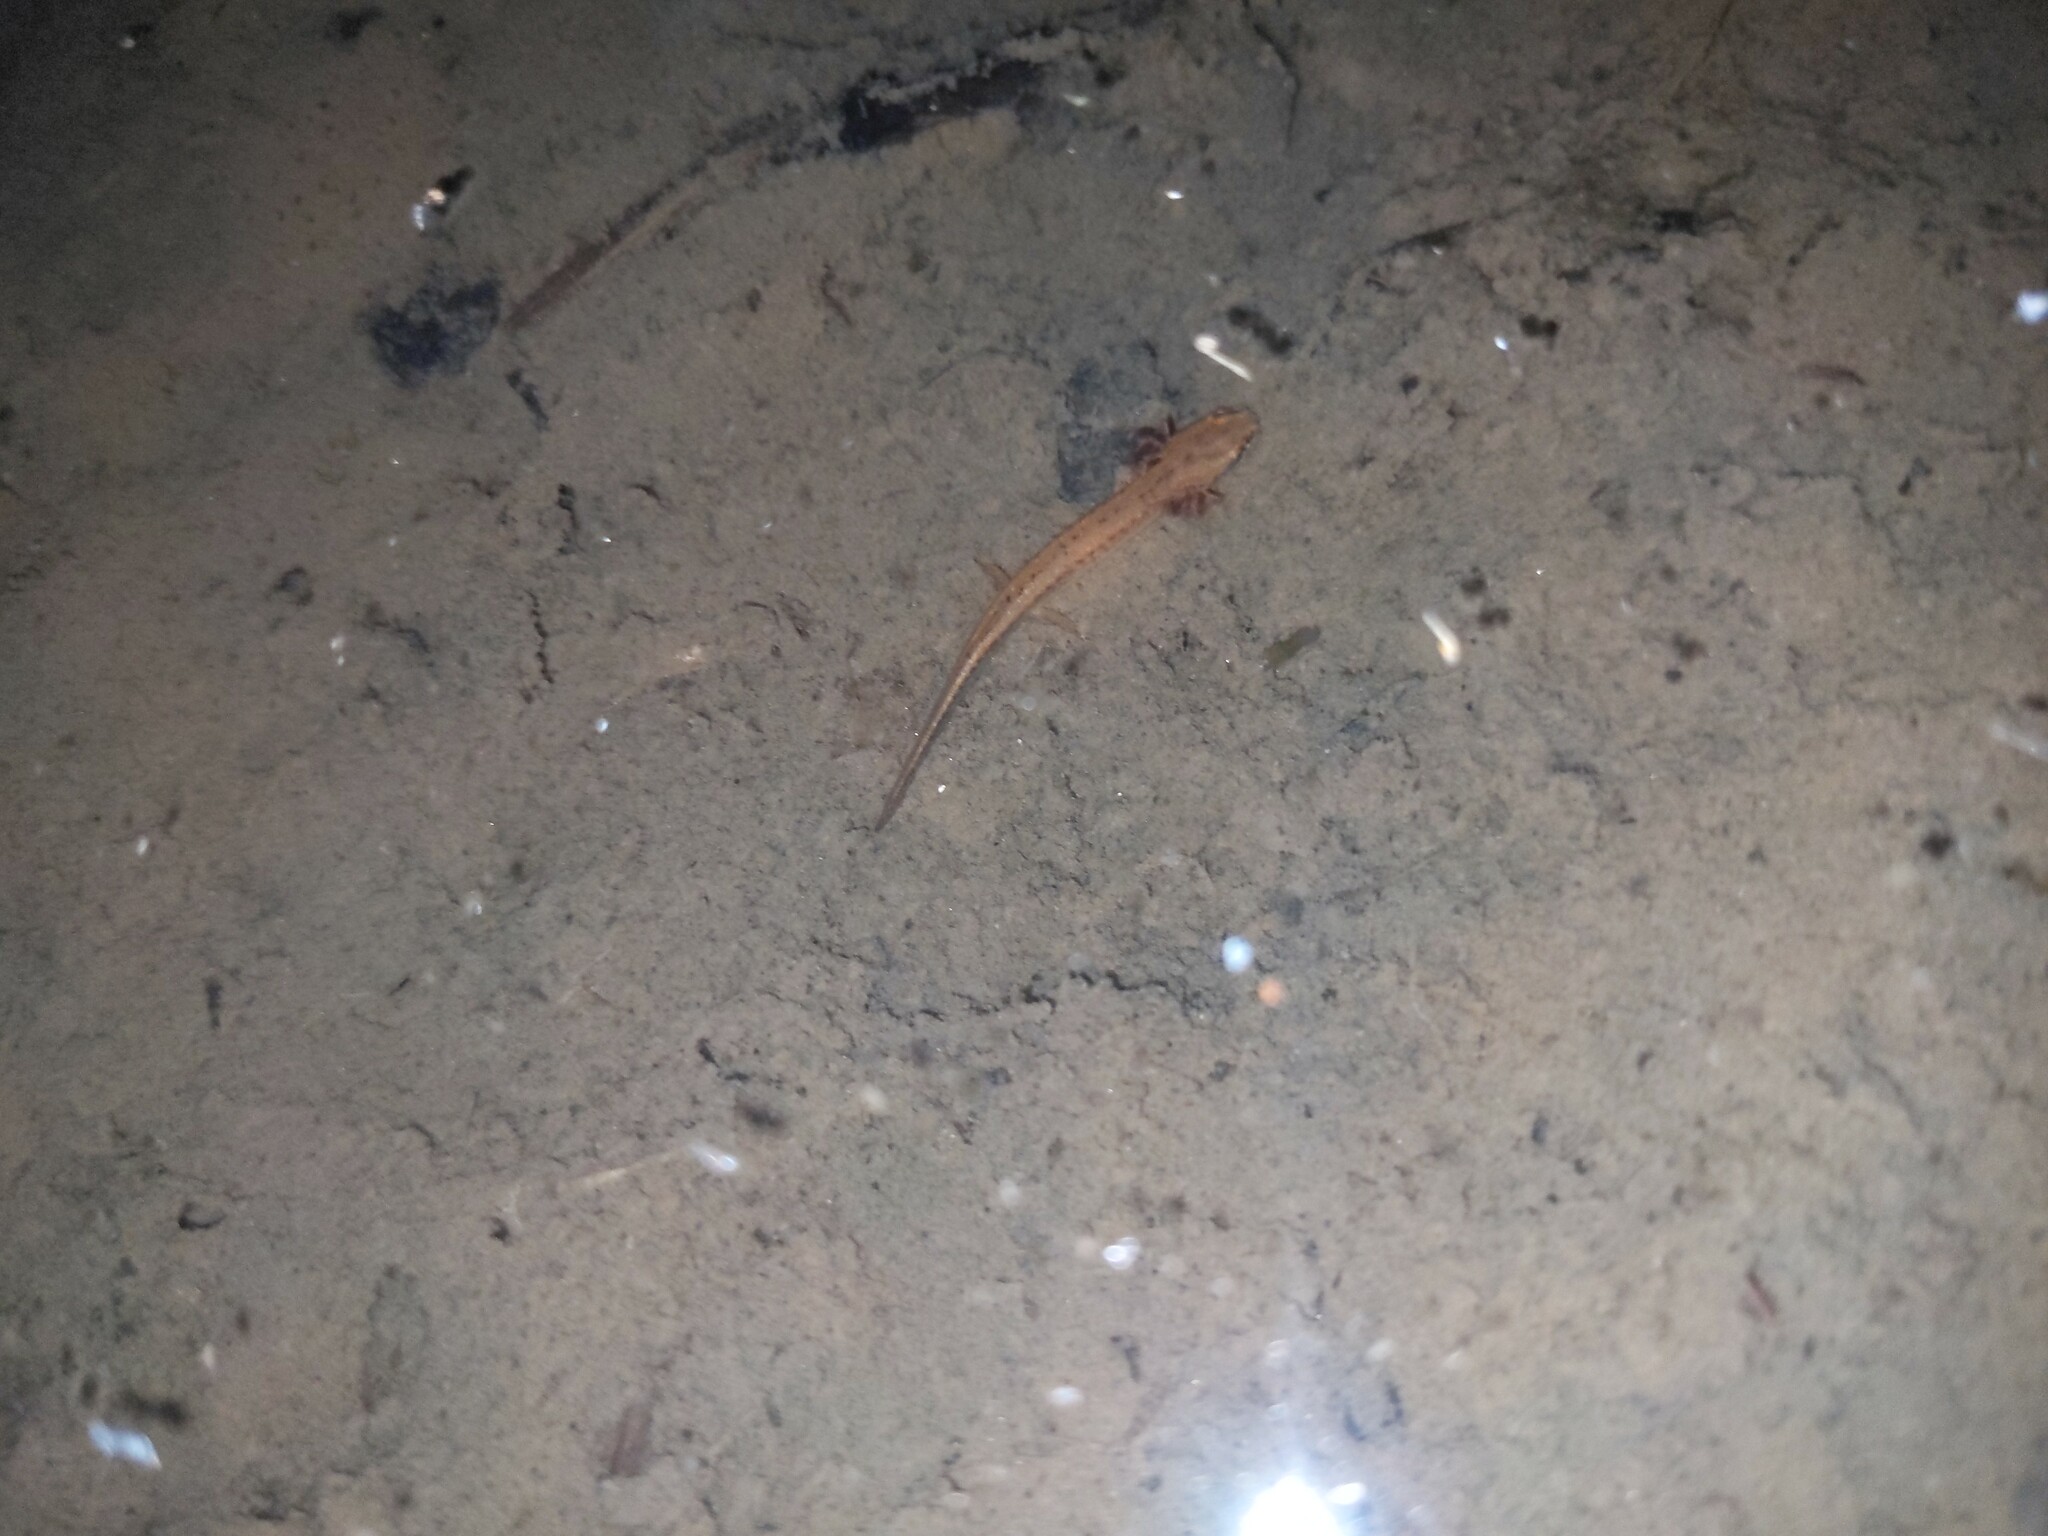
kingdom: Animalia
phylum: Chordata
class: Amphibia
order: Caudata
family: Plethodontidae
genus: Eurycea
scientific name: Eurycea longicauda
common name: Long-tailed salamander
